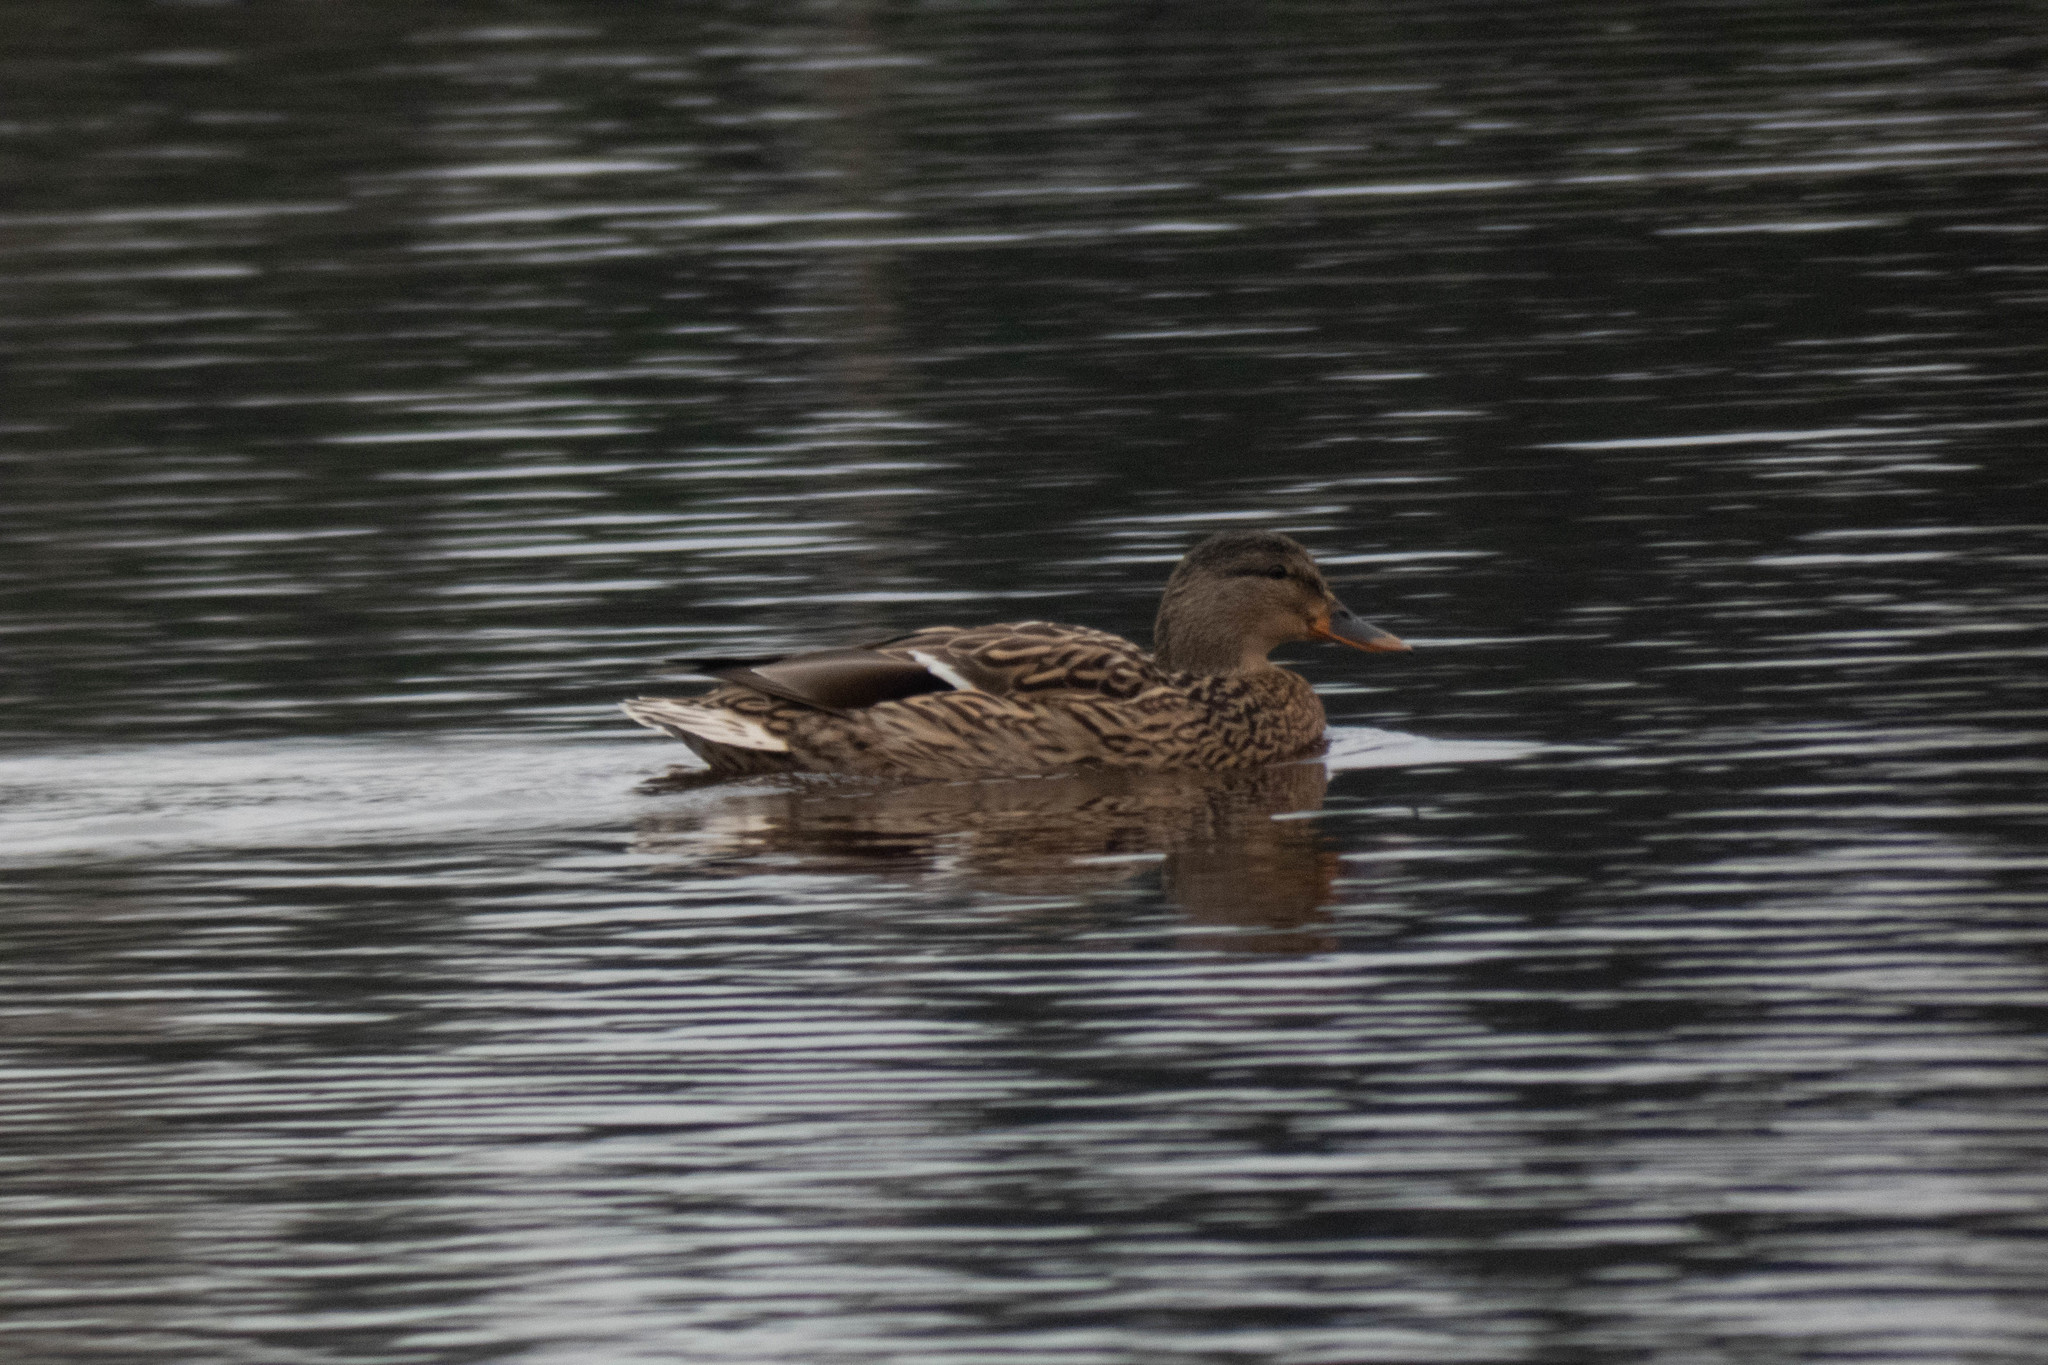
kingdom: Animalia
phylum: Chordata
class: Aves
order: Anseriformes
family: Anatidae
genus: Anas
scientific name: Anas platyrhynchos
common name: Mallard
